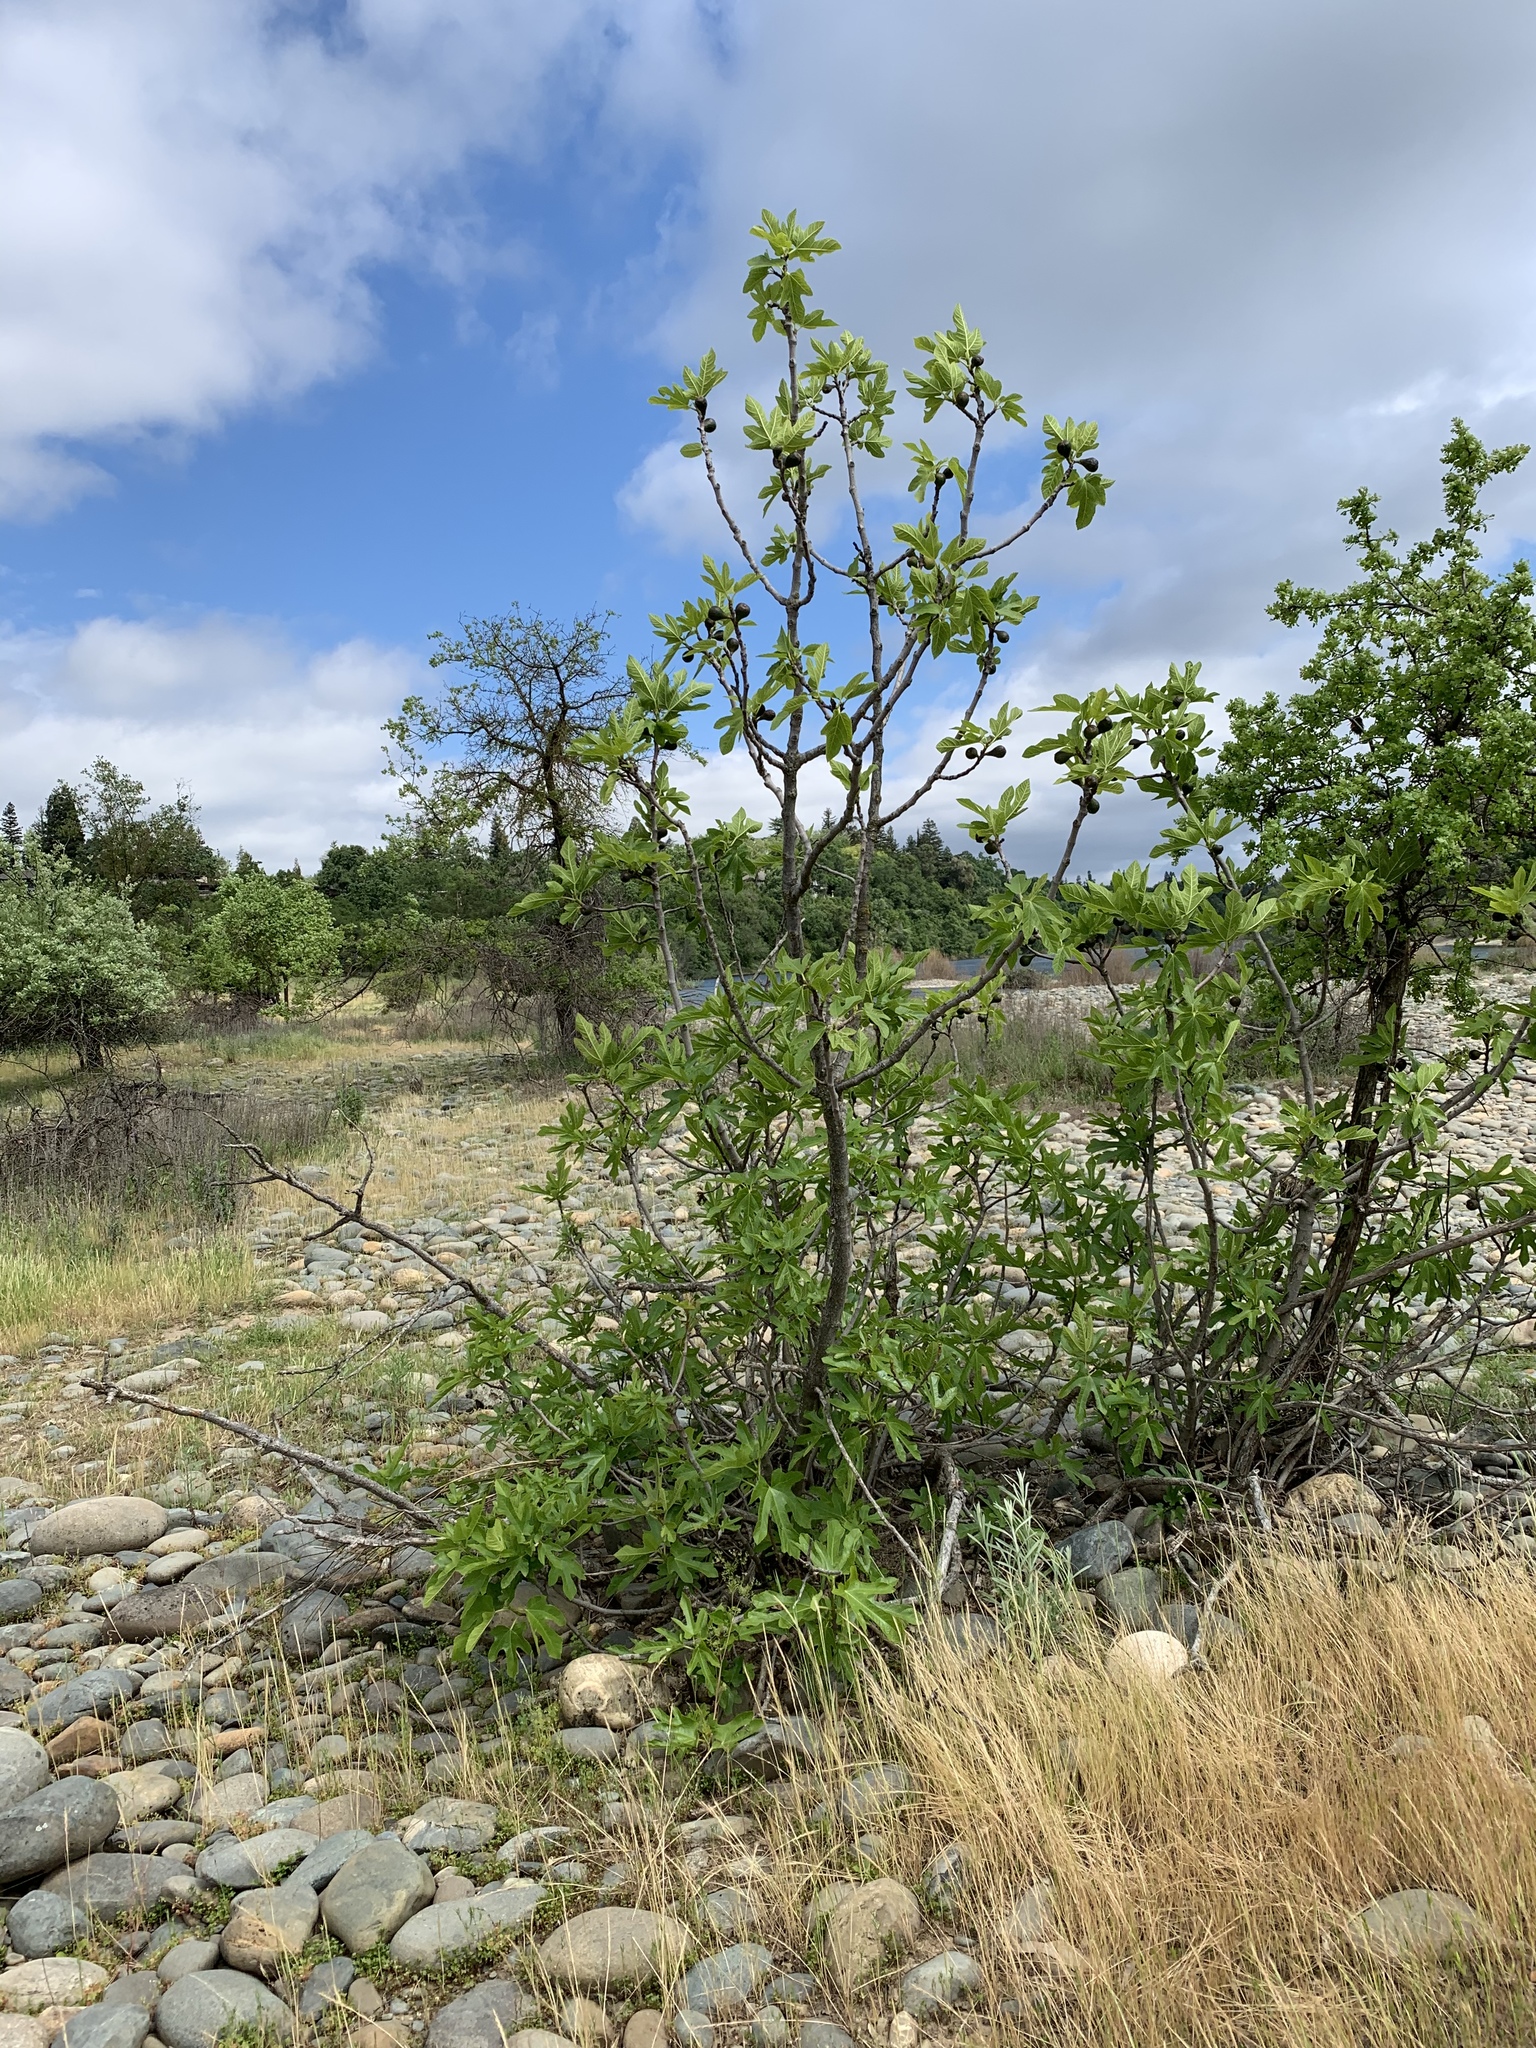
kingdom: Plantae
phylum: Tracheophyta
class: Magnoliopsida
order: Rosales
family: Moraceae
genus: Ficus
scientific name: Ficus carica
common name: Fig
